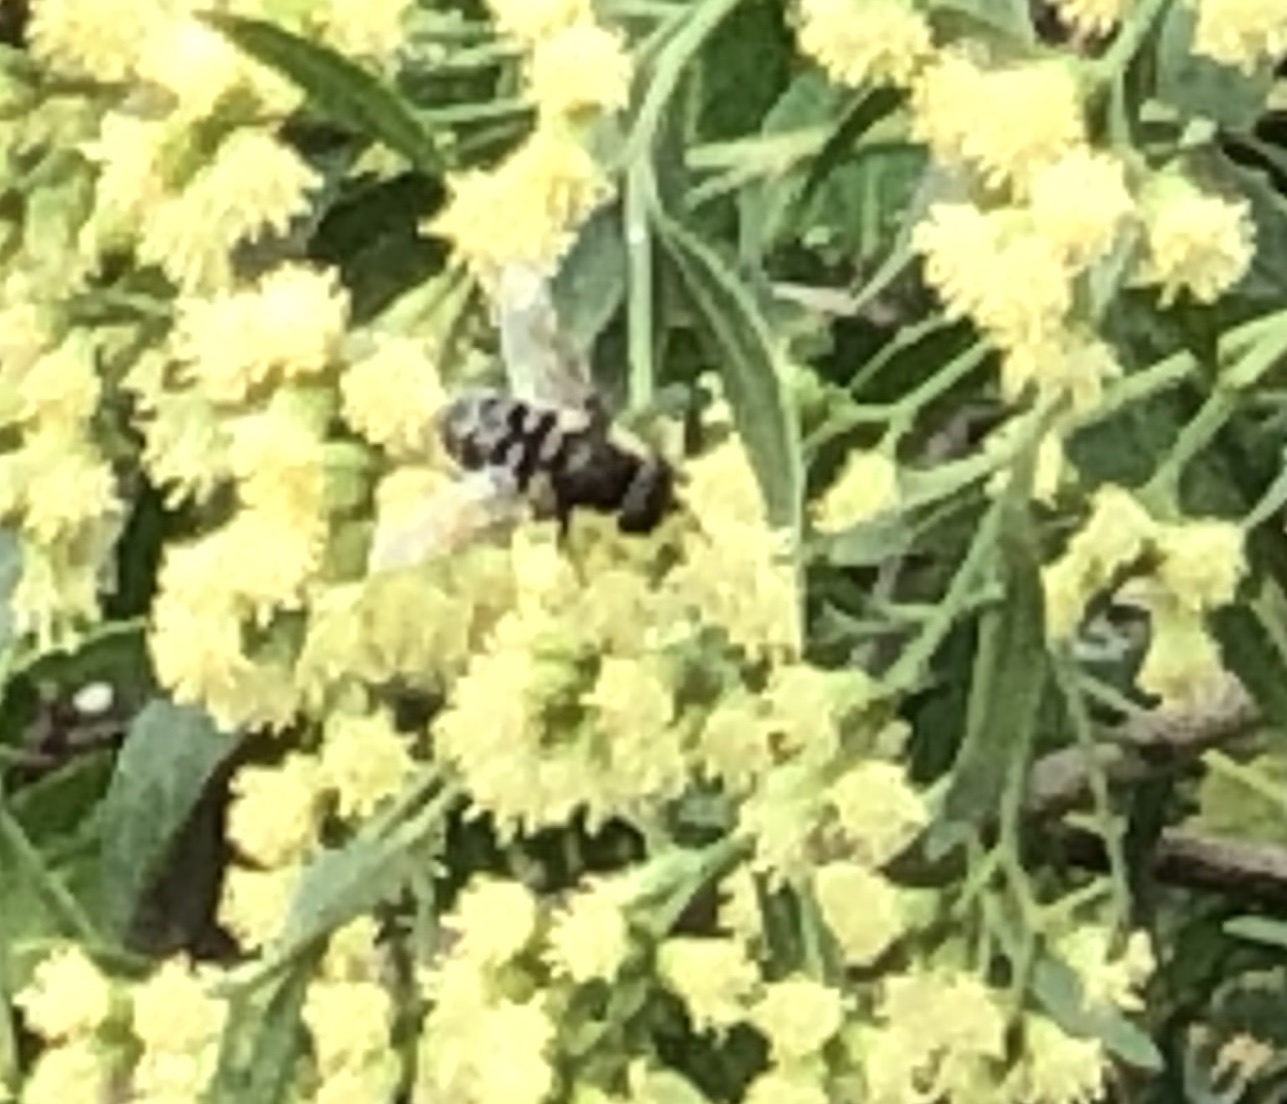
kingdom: Animalia
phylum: Arthropoda
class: Insecta
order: Diptera
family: Syrphidae
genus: Eristalis
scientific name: Eristalis dimidiata
